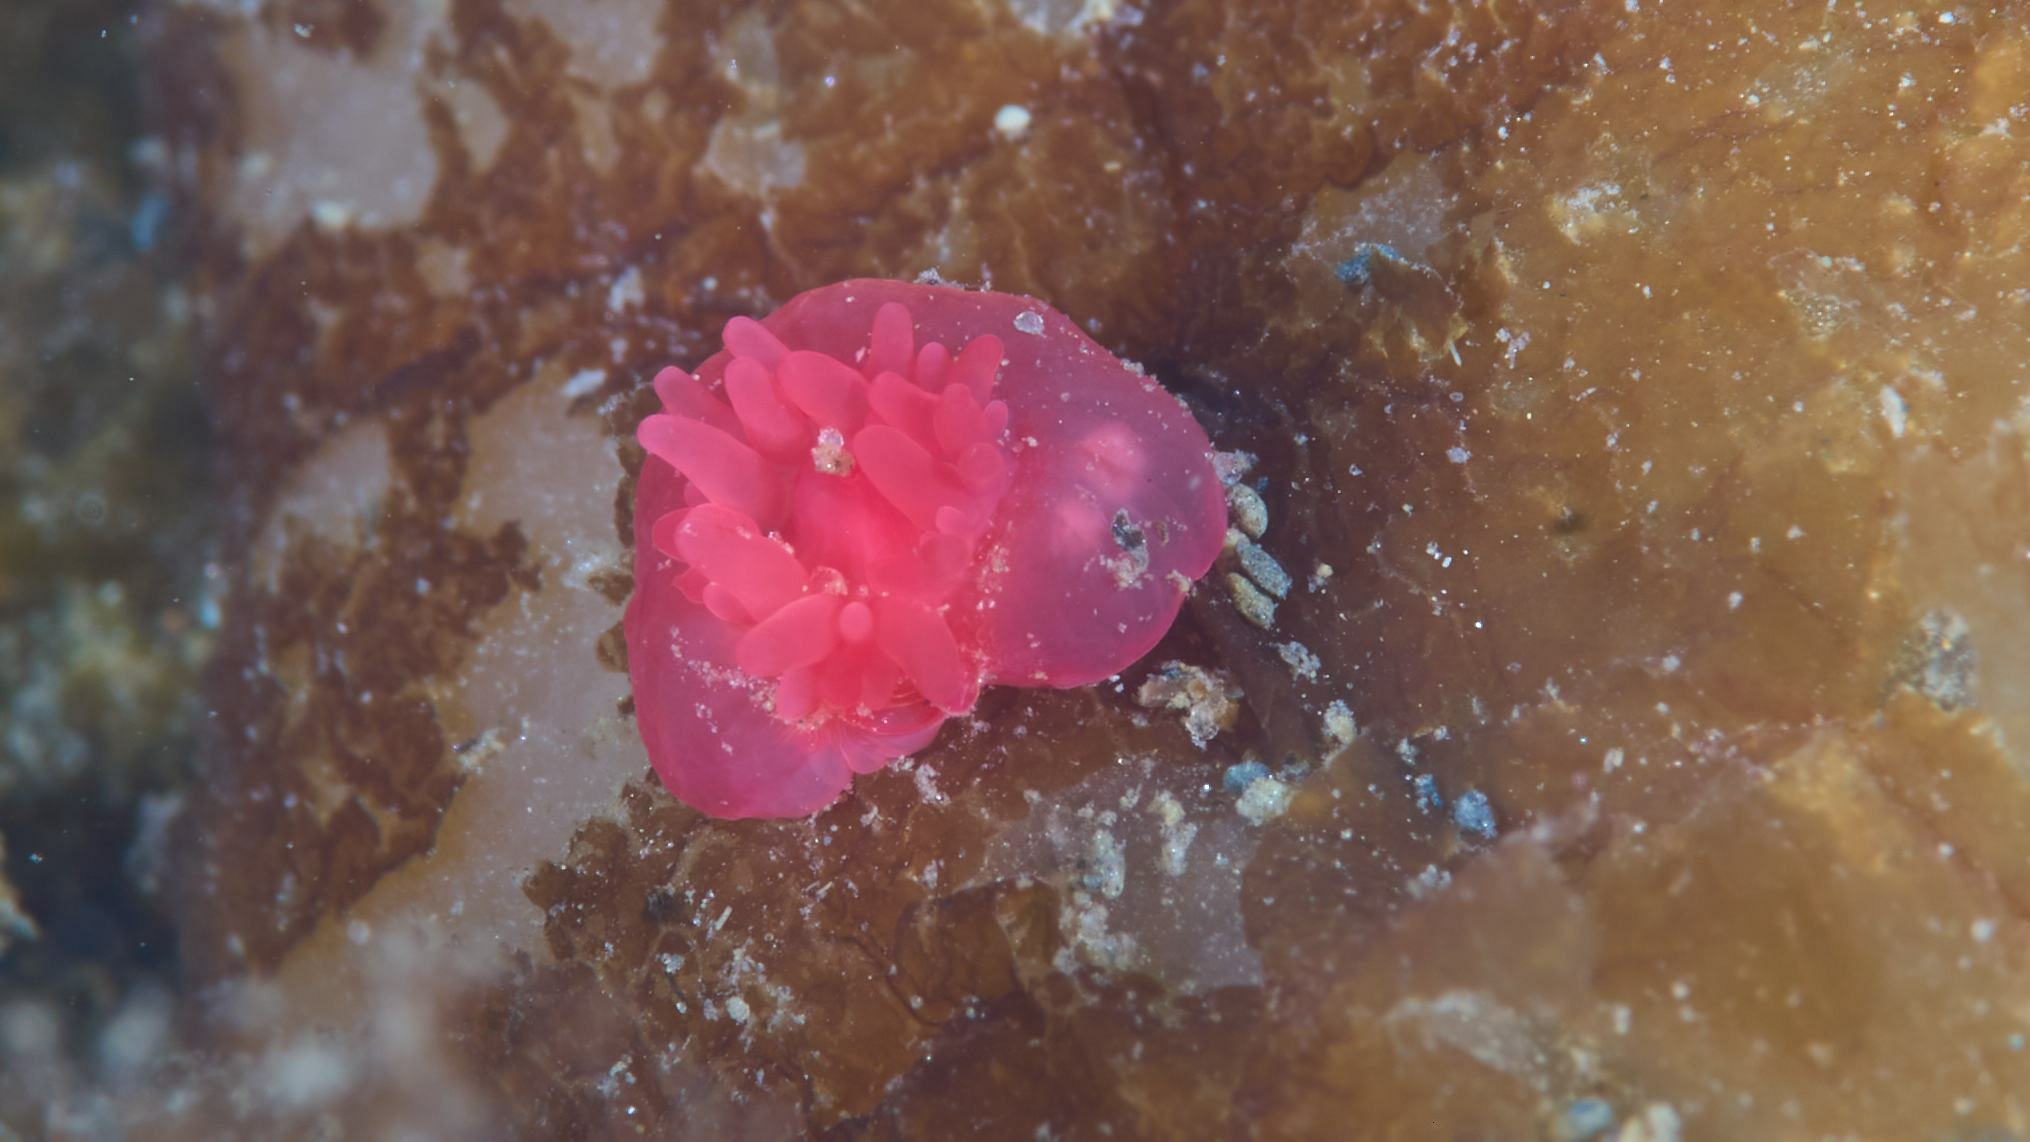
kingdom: Animalia
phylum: Cnidaria
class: Anthozoa
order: Actiniaria
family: Actiniidae
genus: Actinia
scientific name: Actinia tenebrosa
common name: Waratah anemone
